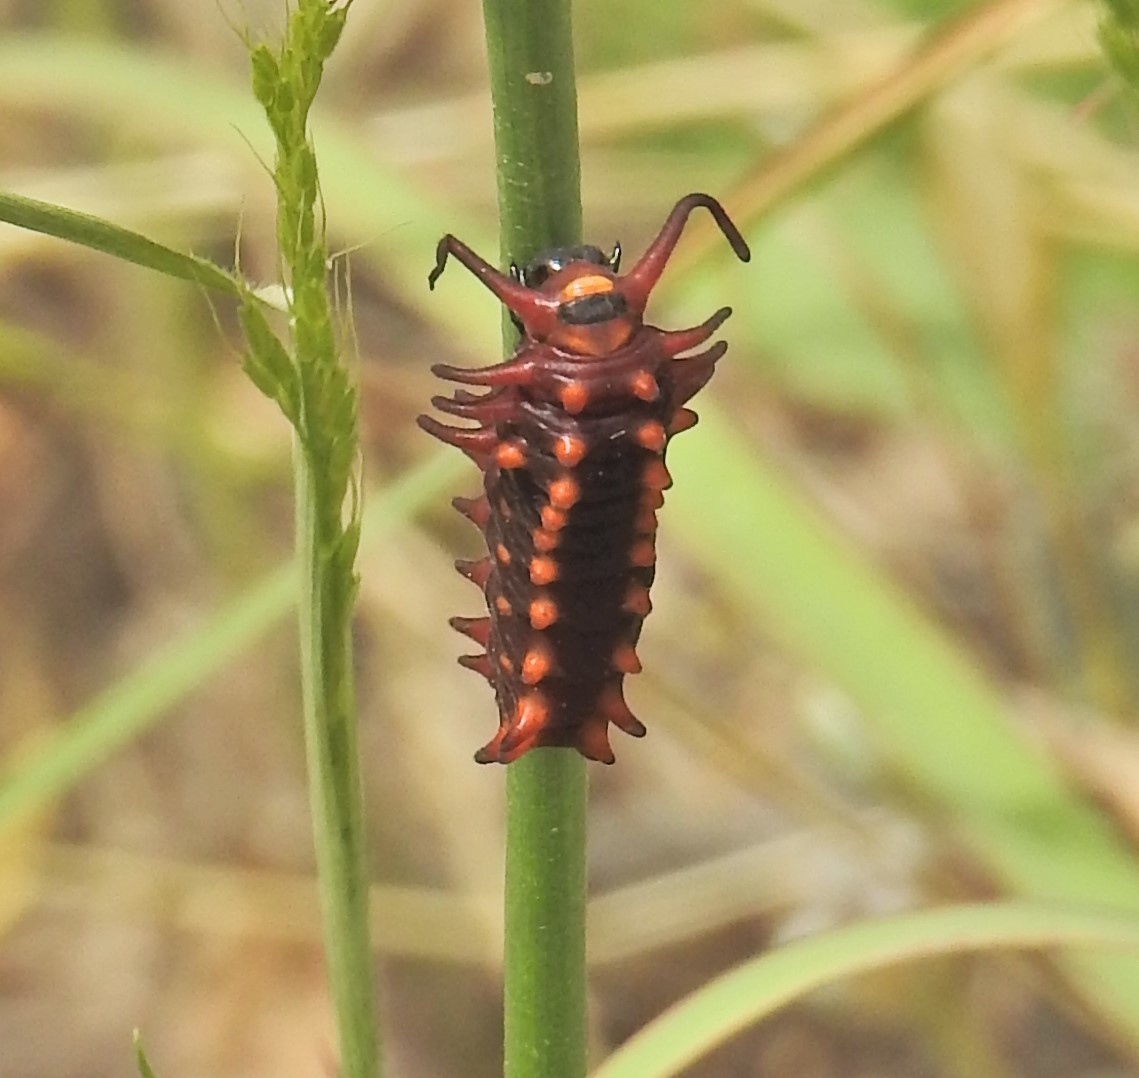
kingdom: Animalia
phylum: Arthropoda
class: Insecta
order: Lepidoptera
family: Papilionidae
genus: Battus
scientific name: Battus philenor
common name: Pipevine swallowtail
